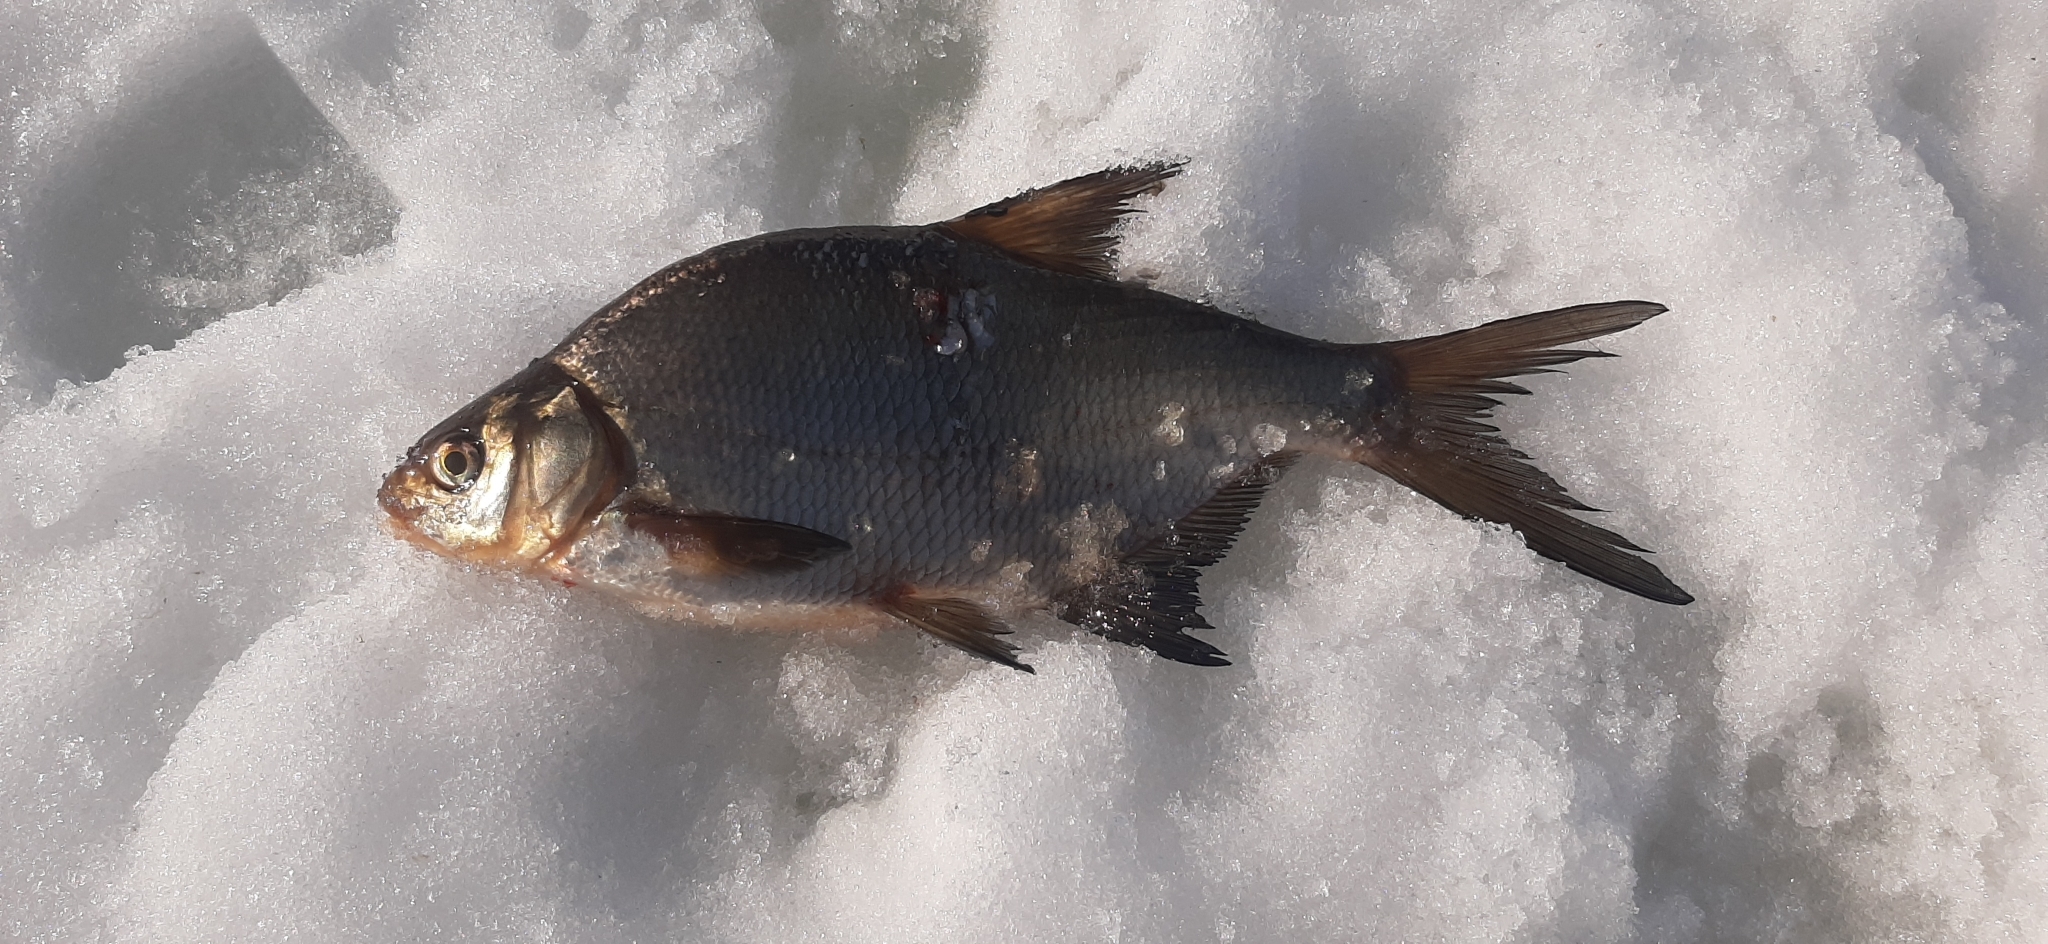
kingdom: Animalia
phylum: Chordata
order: Cypriniformes
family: Cyprinidae
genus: Abramis
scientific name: Abramis brama
